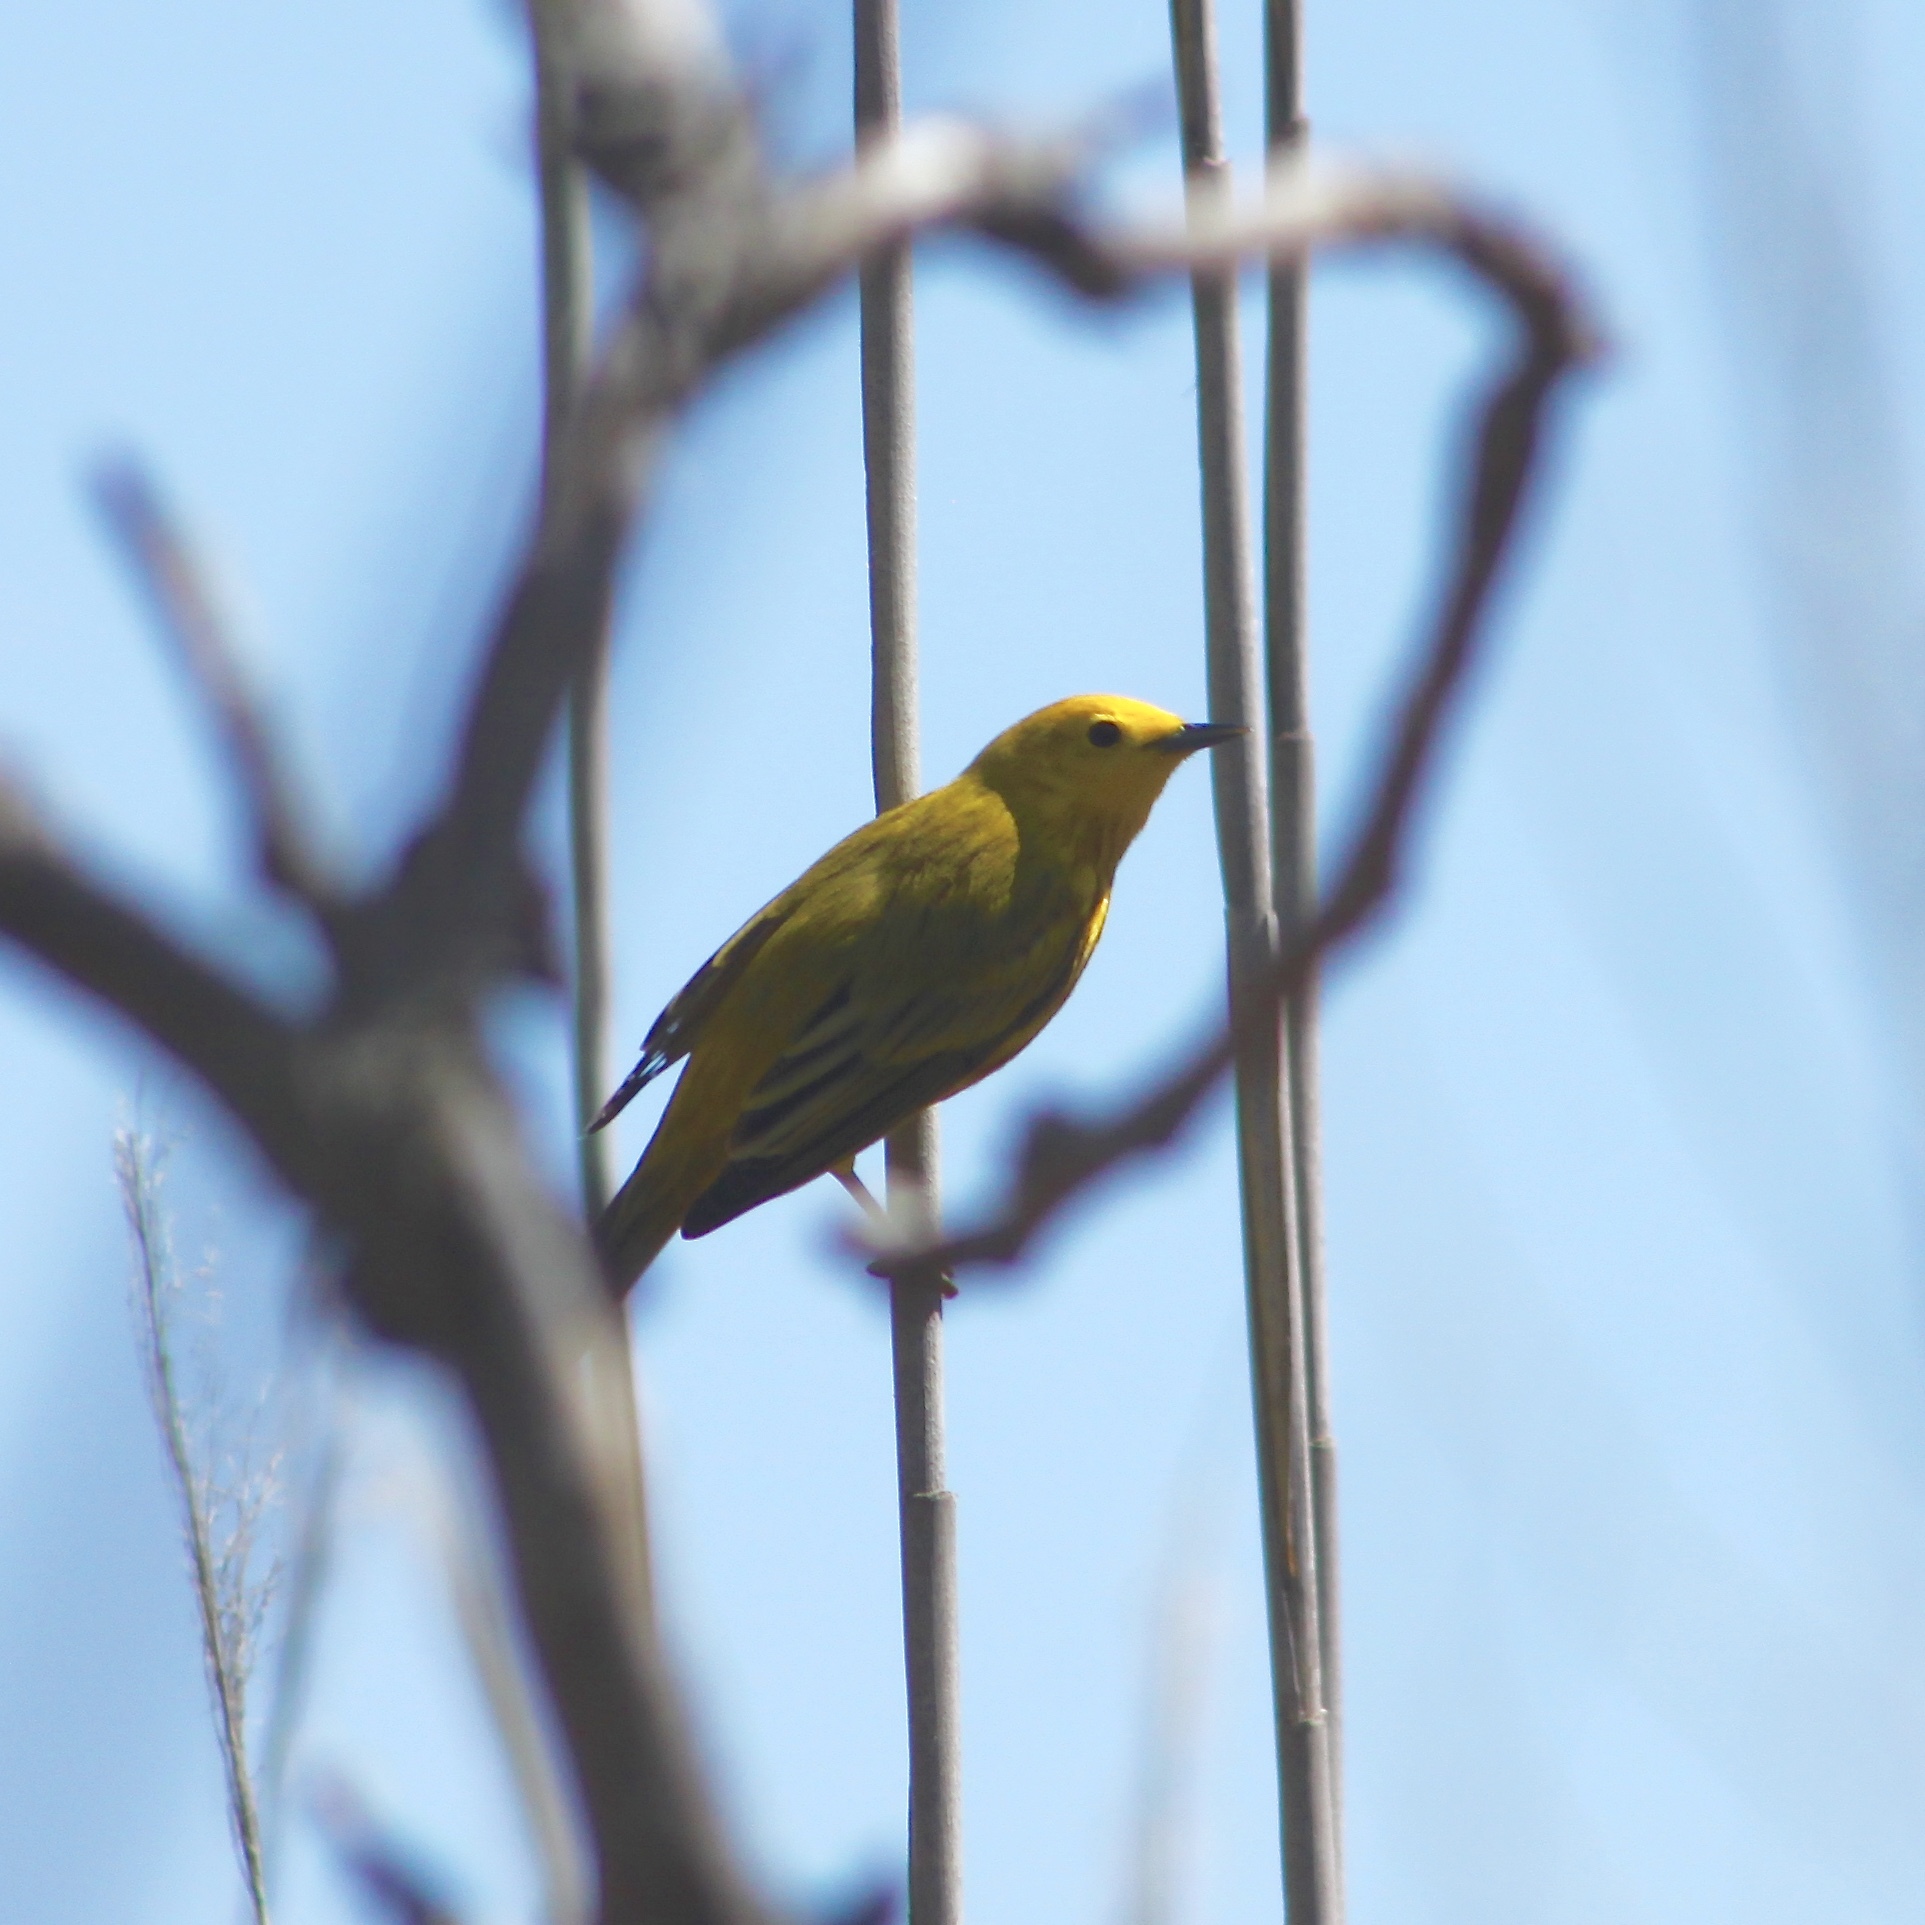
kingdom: Animalia
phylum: Chordata
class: Aves
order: Passeriformes
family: Parulidae
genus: Setophaga
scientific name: Setophaga petechia
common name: Yellow warbler
